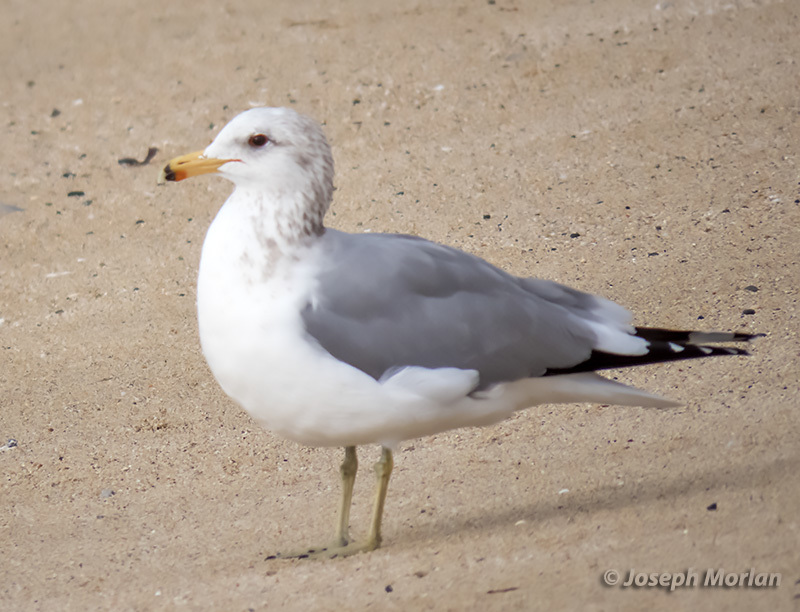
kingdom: Animalia
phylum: Chordata
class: Aves
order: Charadriiformes
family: Laridae
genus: Larus
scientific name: Larus californicus
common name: California gull
